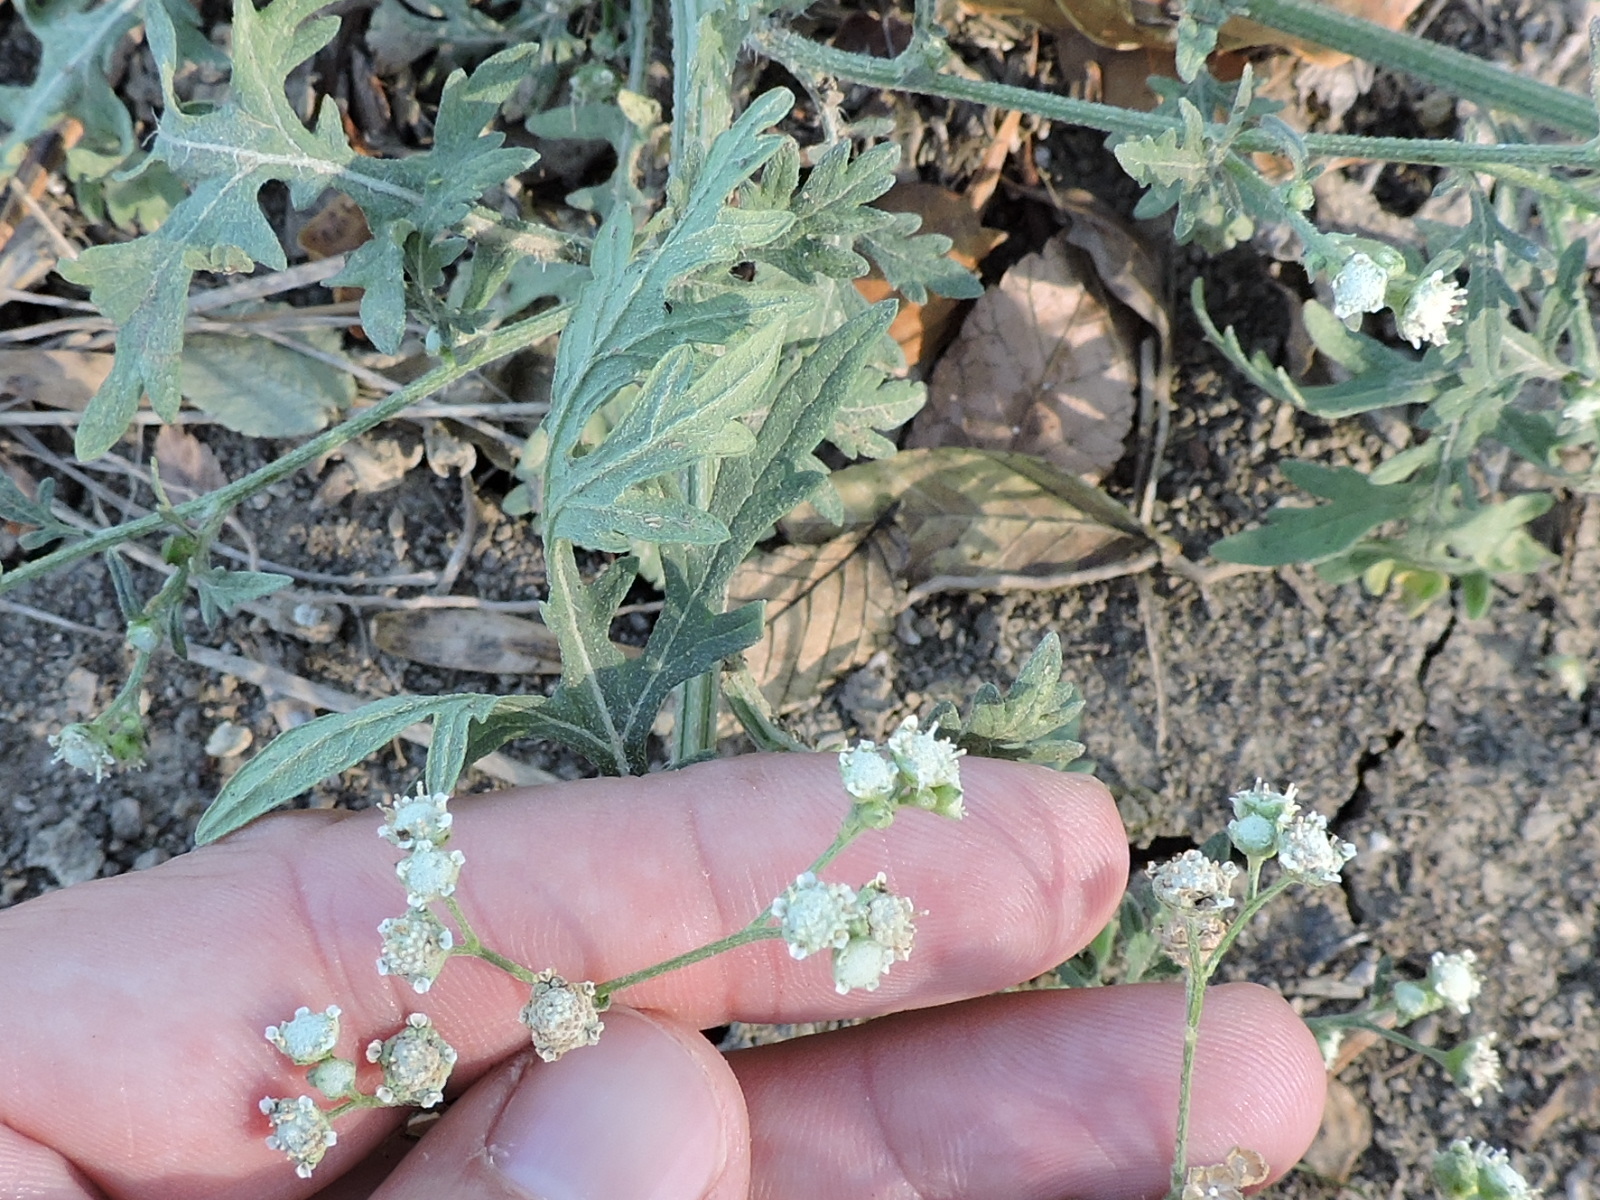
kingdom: Plantae
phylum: Tracheophyta
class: Magnoliopsida
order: Asterales
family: Asteraceae
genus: Parthenium
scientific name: Parthenium hysterophorus
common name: Santa maria feverfew
